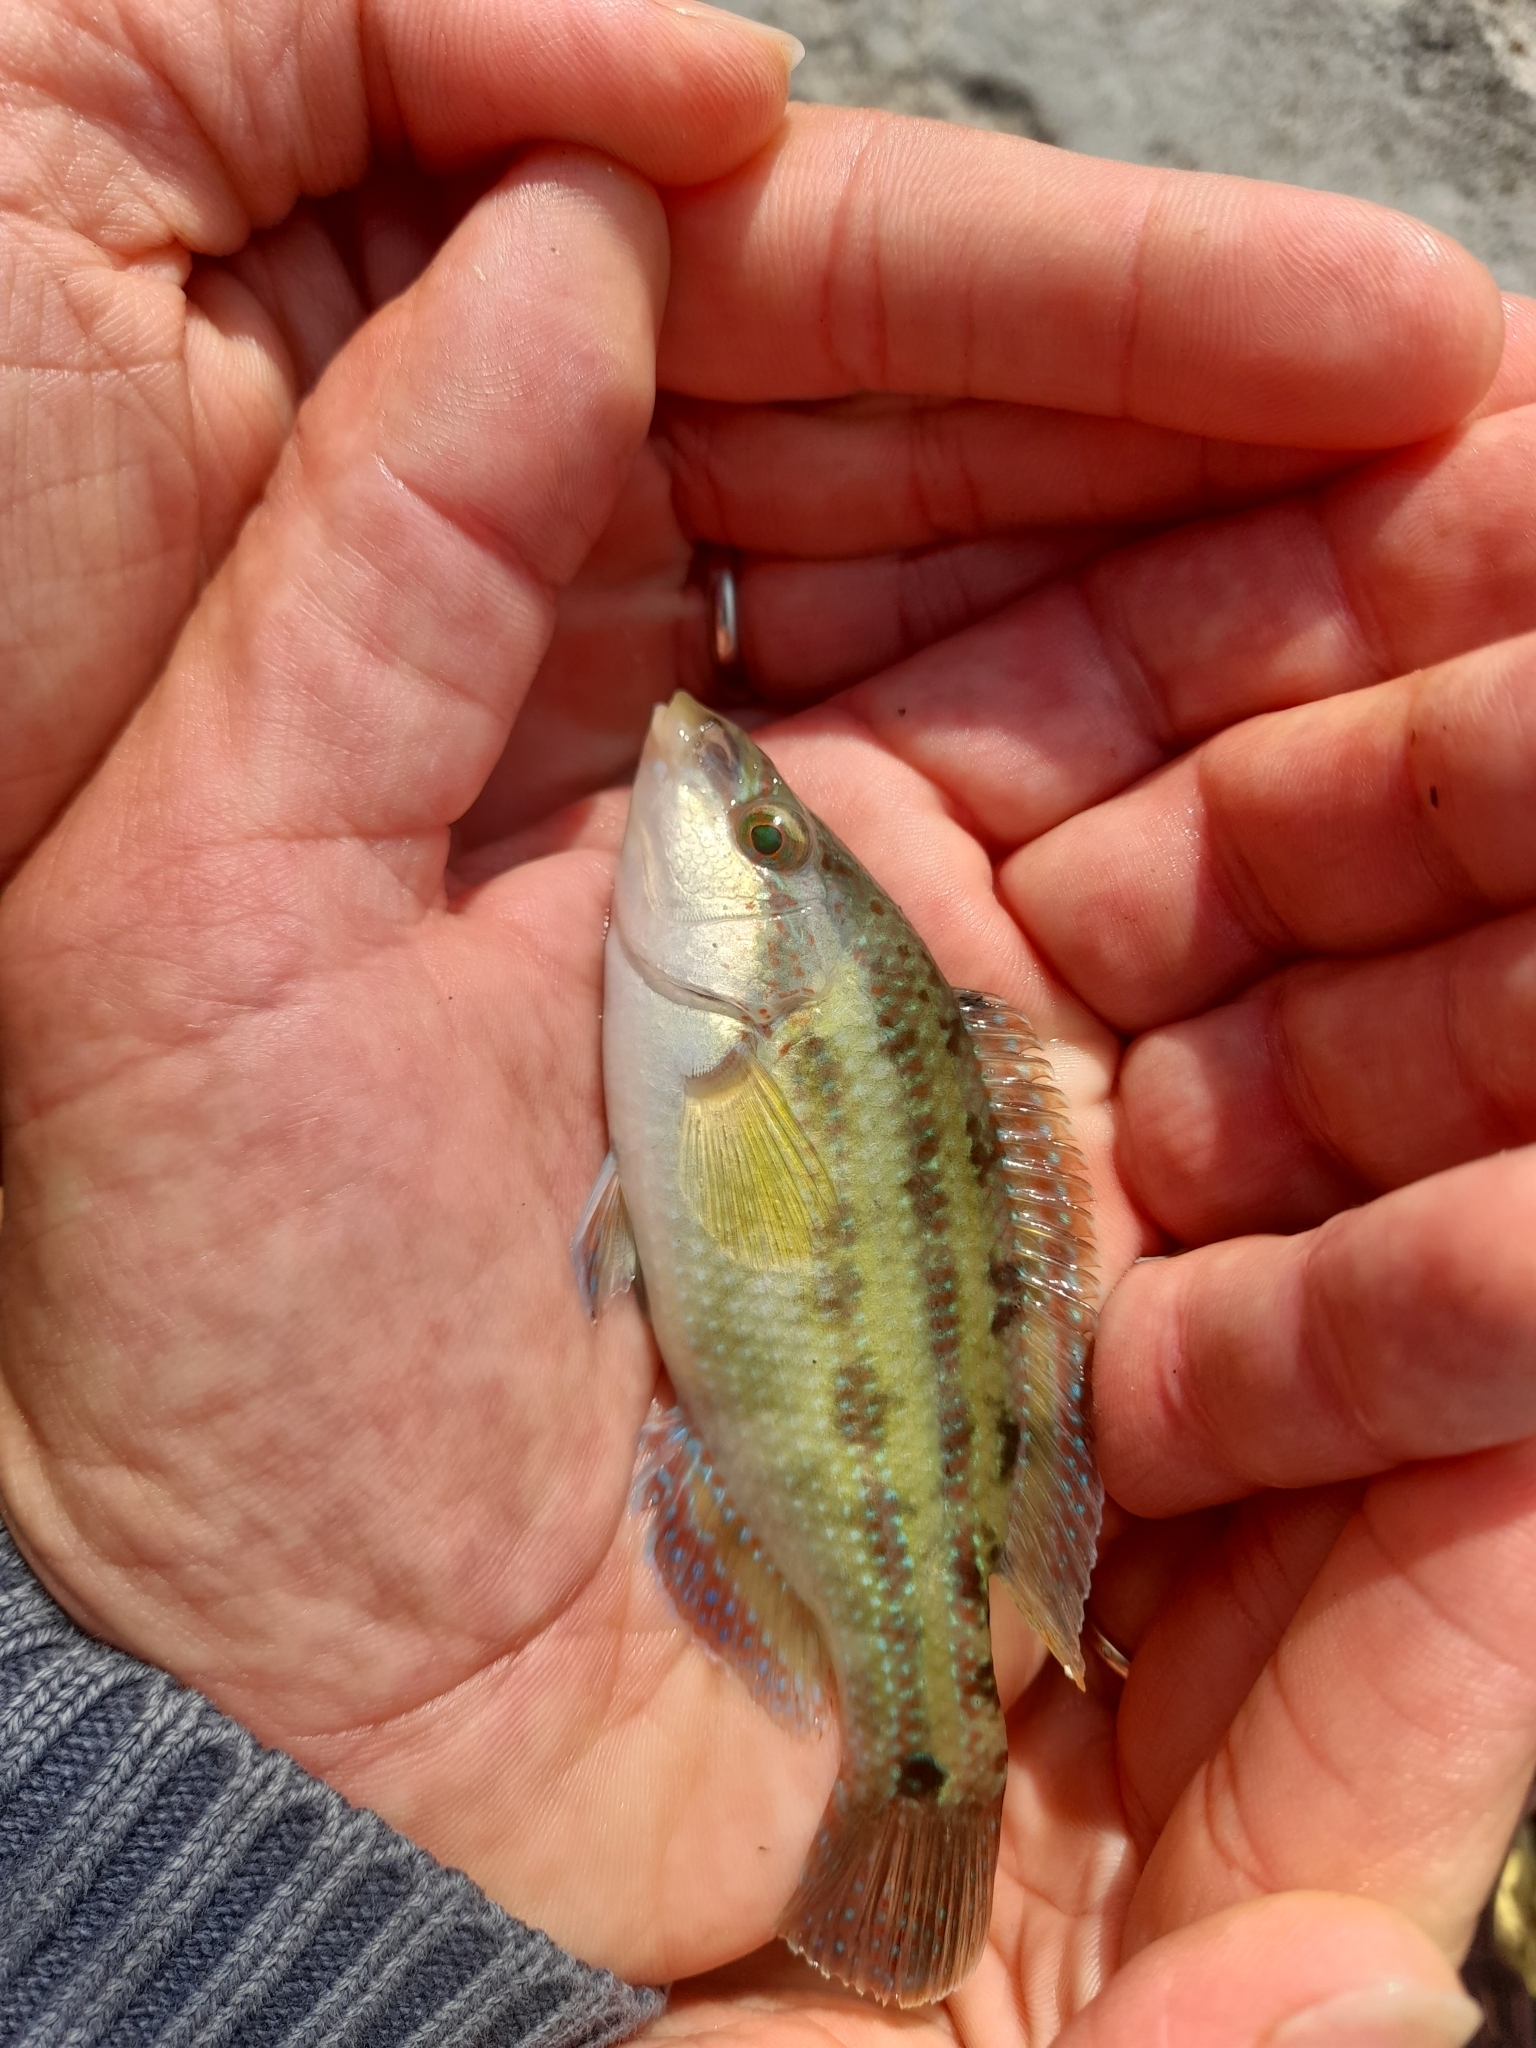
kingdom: Animalia
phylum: Chordata
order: Perciformes
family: Labridae
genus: Symphodus
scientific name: Symphodus tinca
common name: Peacock wrasse
